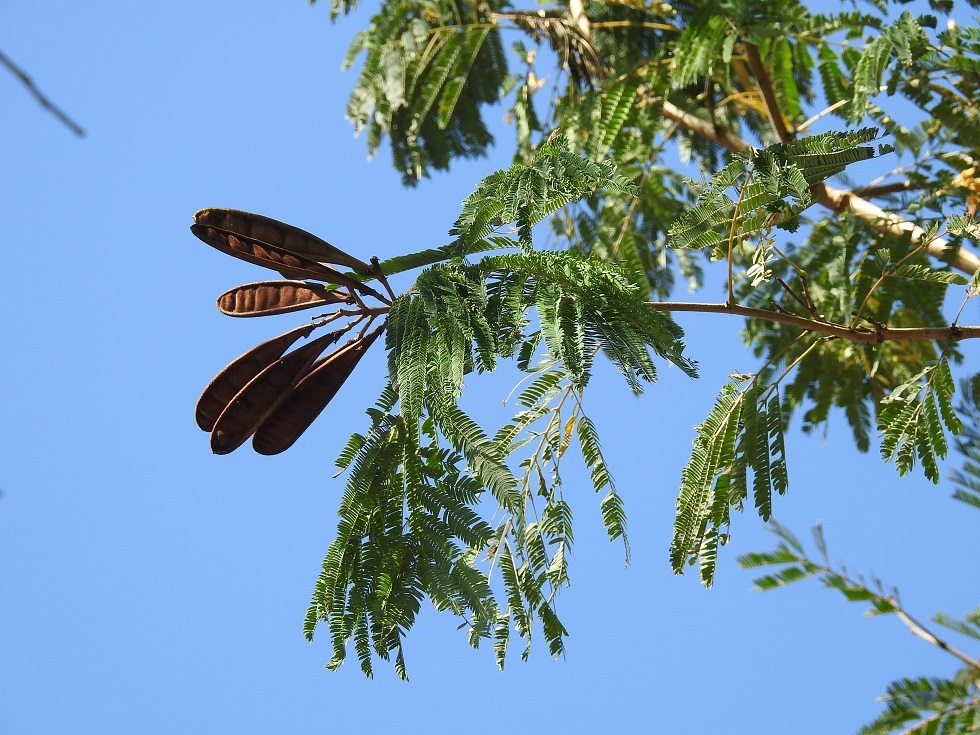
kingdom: Plantae
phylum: Tracheophyta
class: Magnoliopsida
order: Fabales
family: Fabaceae
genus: Calliandra
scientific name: Calliandra houstoniana
